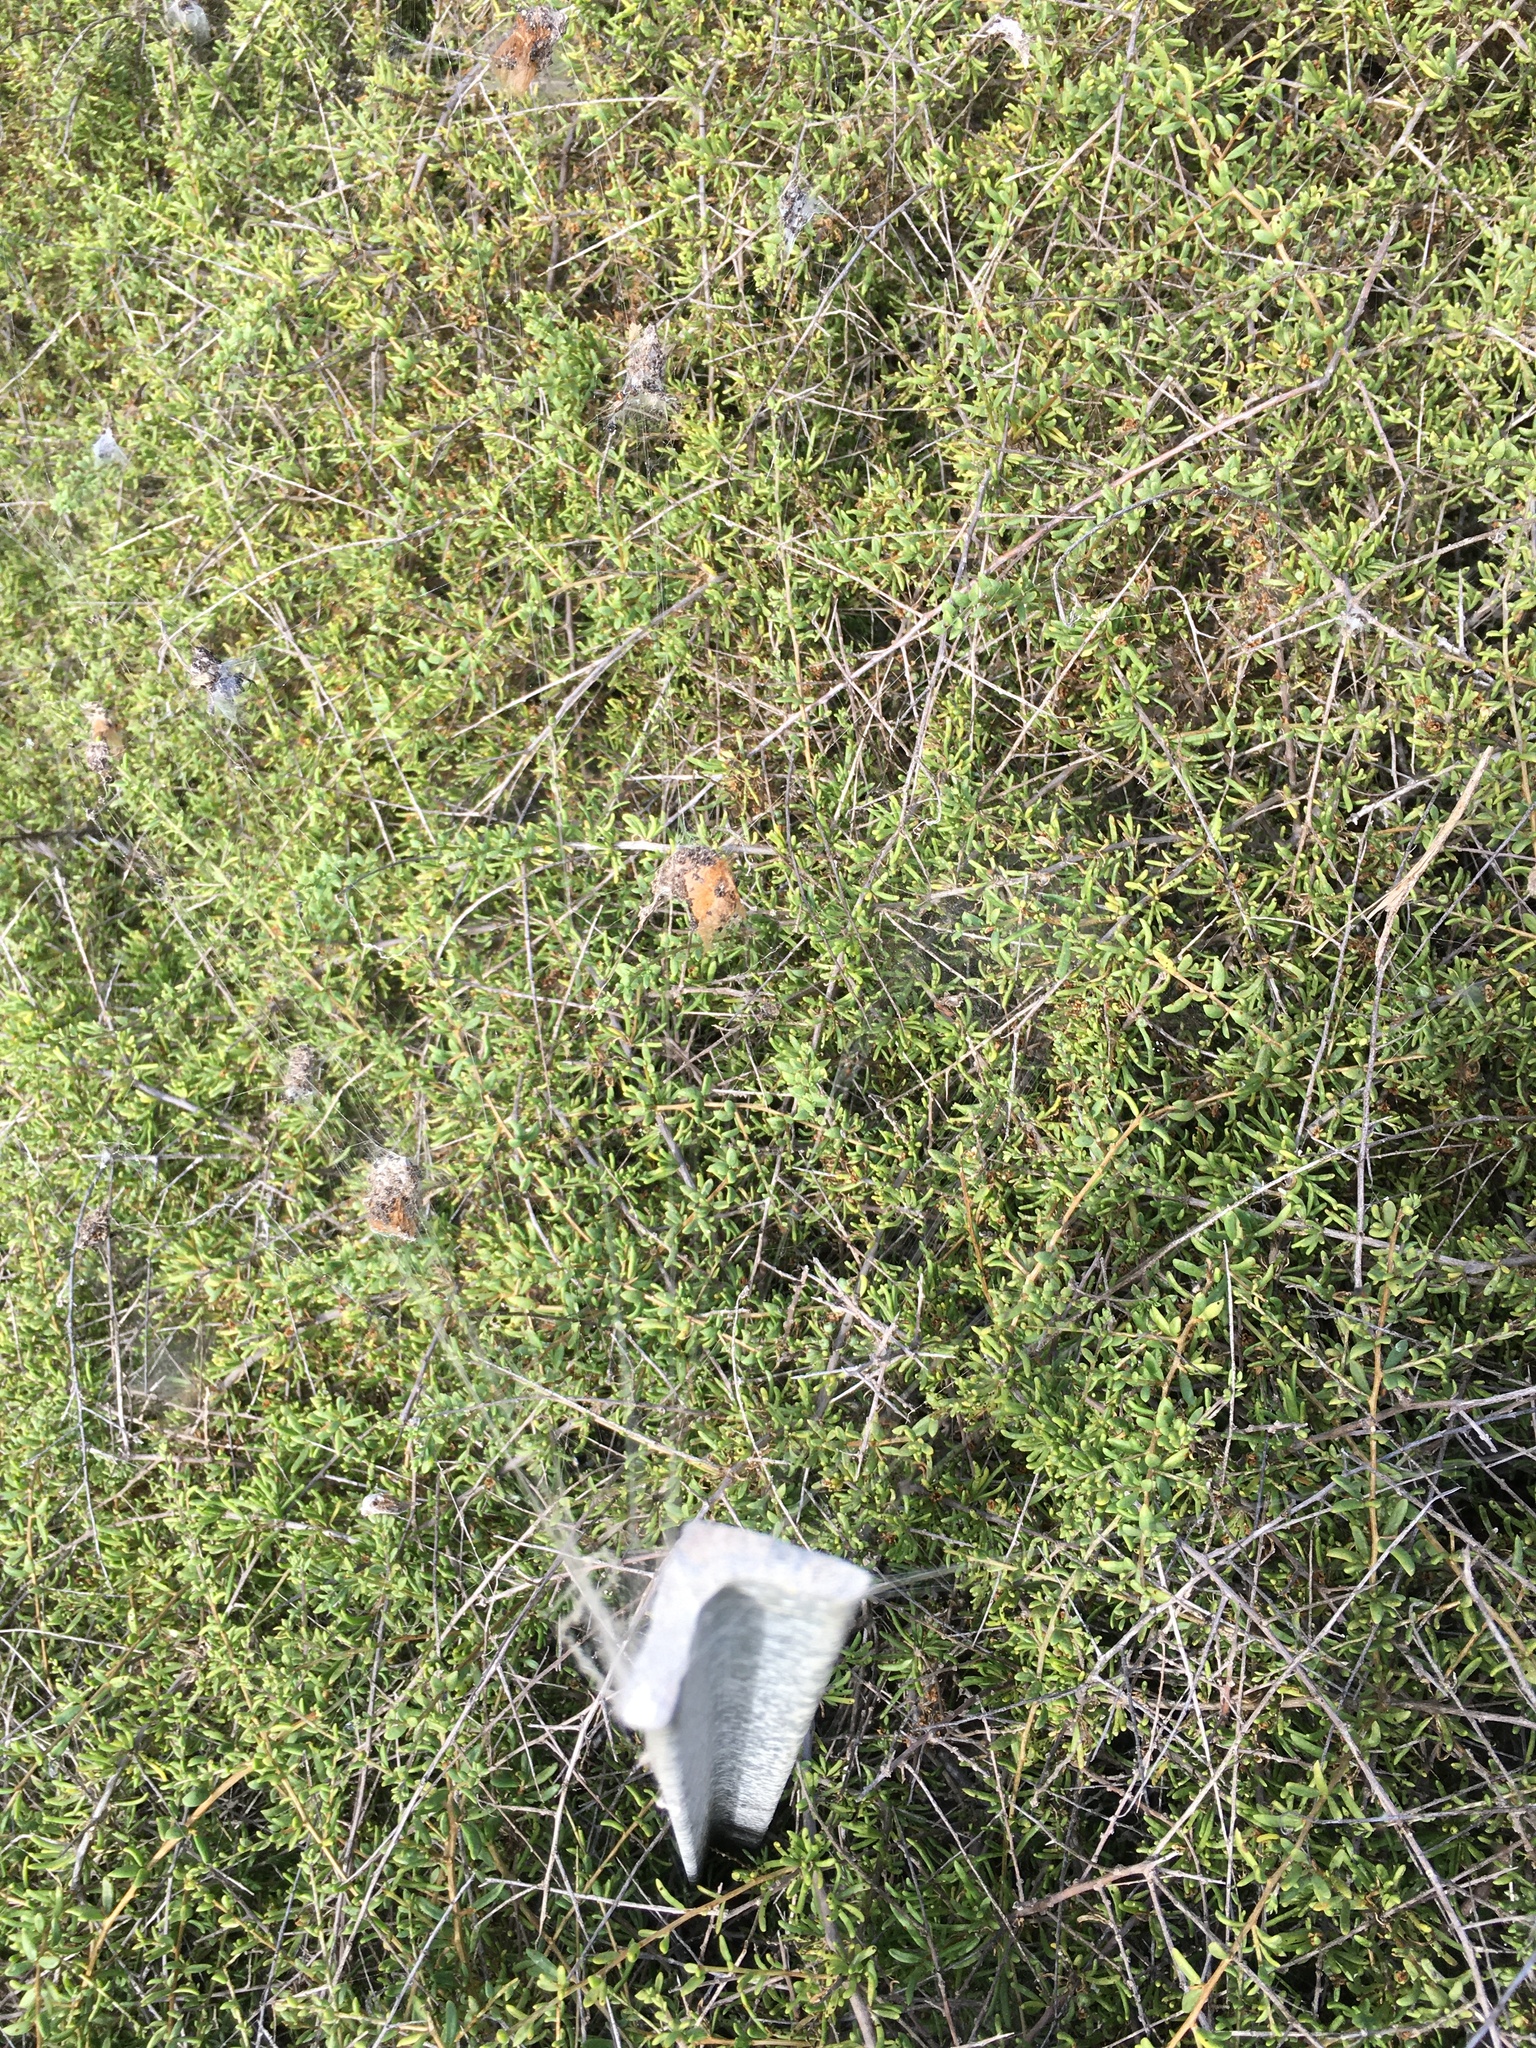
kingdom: Plantae
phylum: Tracheophyta
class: Magnoliopsida
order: Solanales
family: Solanaceae
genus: Lycium
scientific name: Lycium californicum
